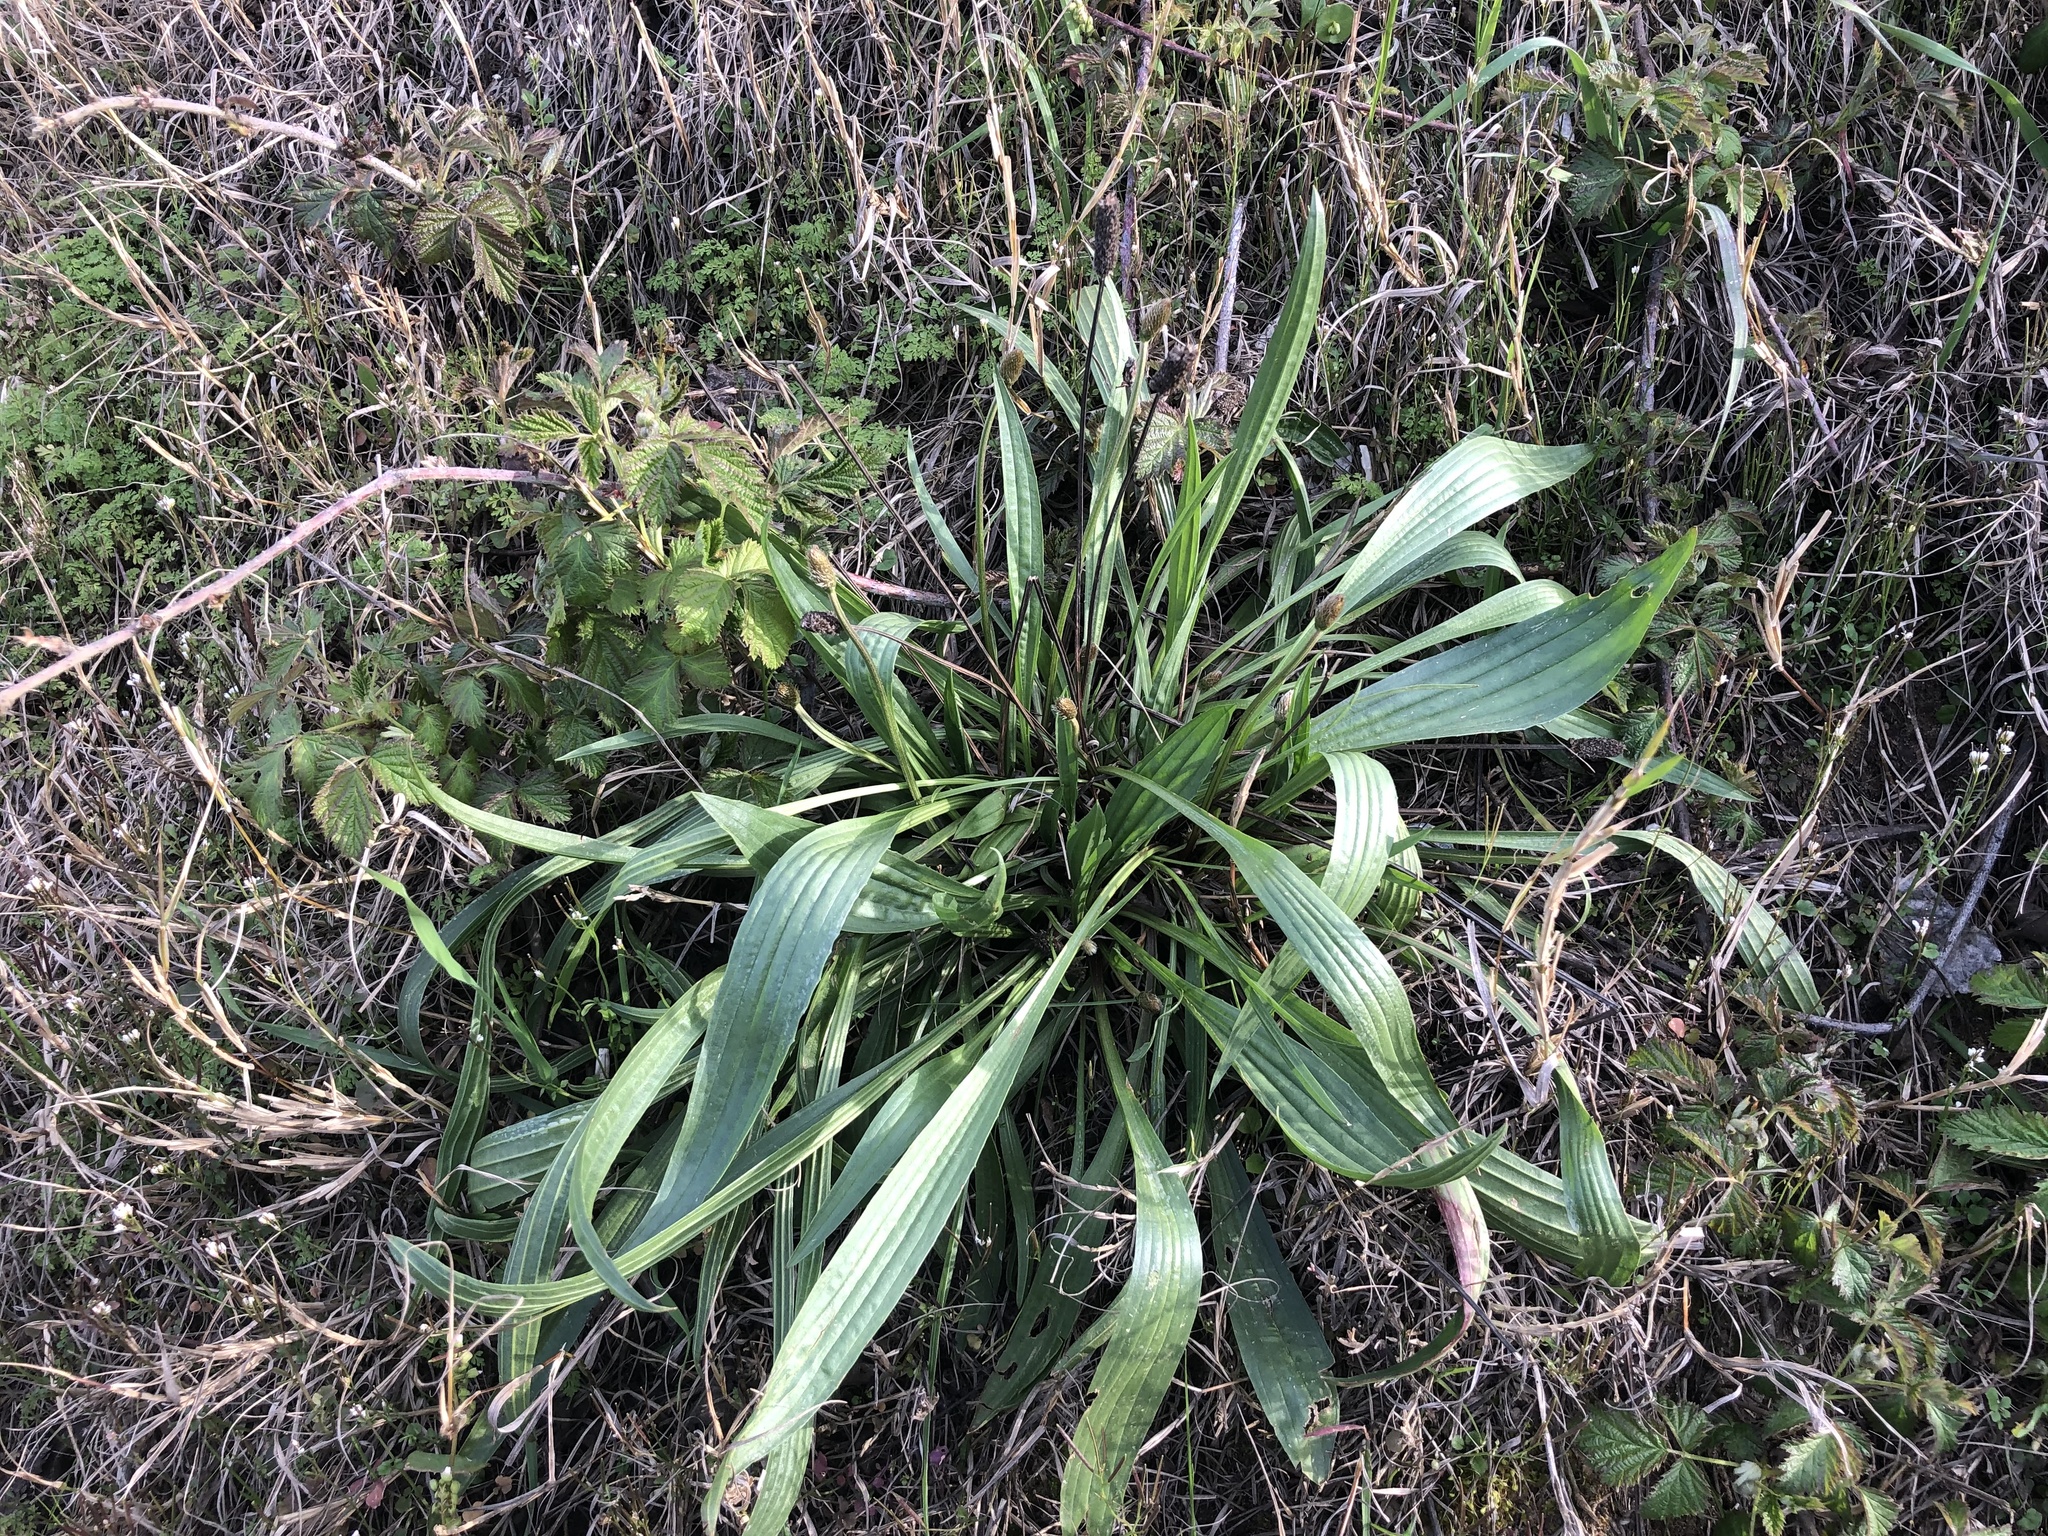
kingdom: Plantae
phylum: Tracheophyta
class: Magnoliopsida
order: Lamiales
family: Plantaginaceae
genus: Plantago
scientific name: Plantago lanceolata
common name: Ribwort plantain
